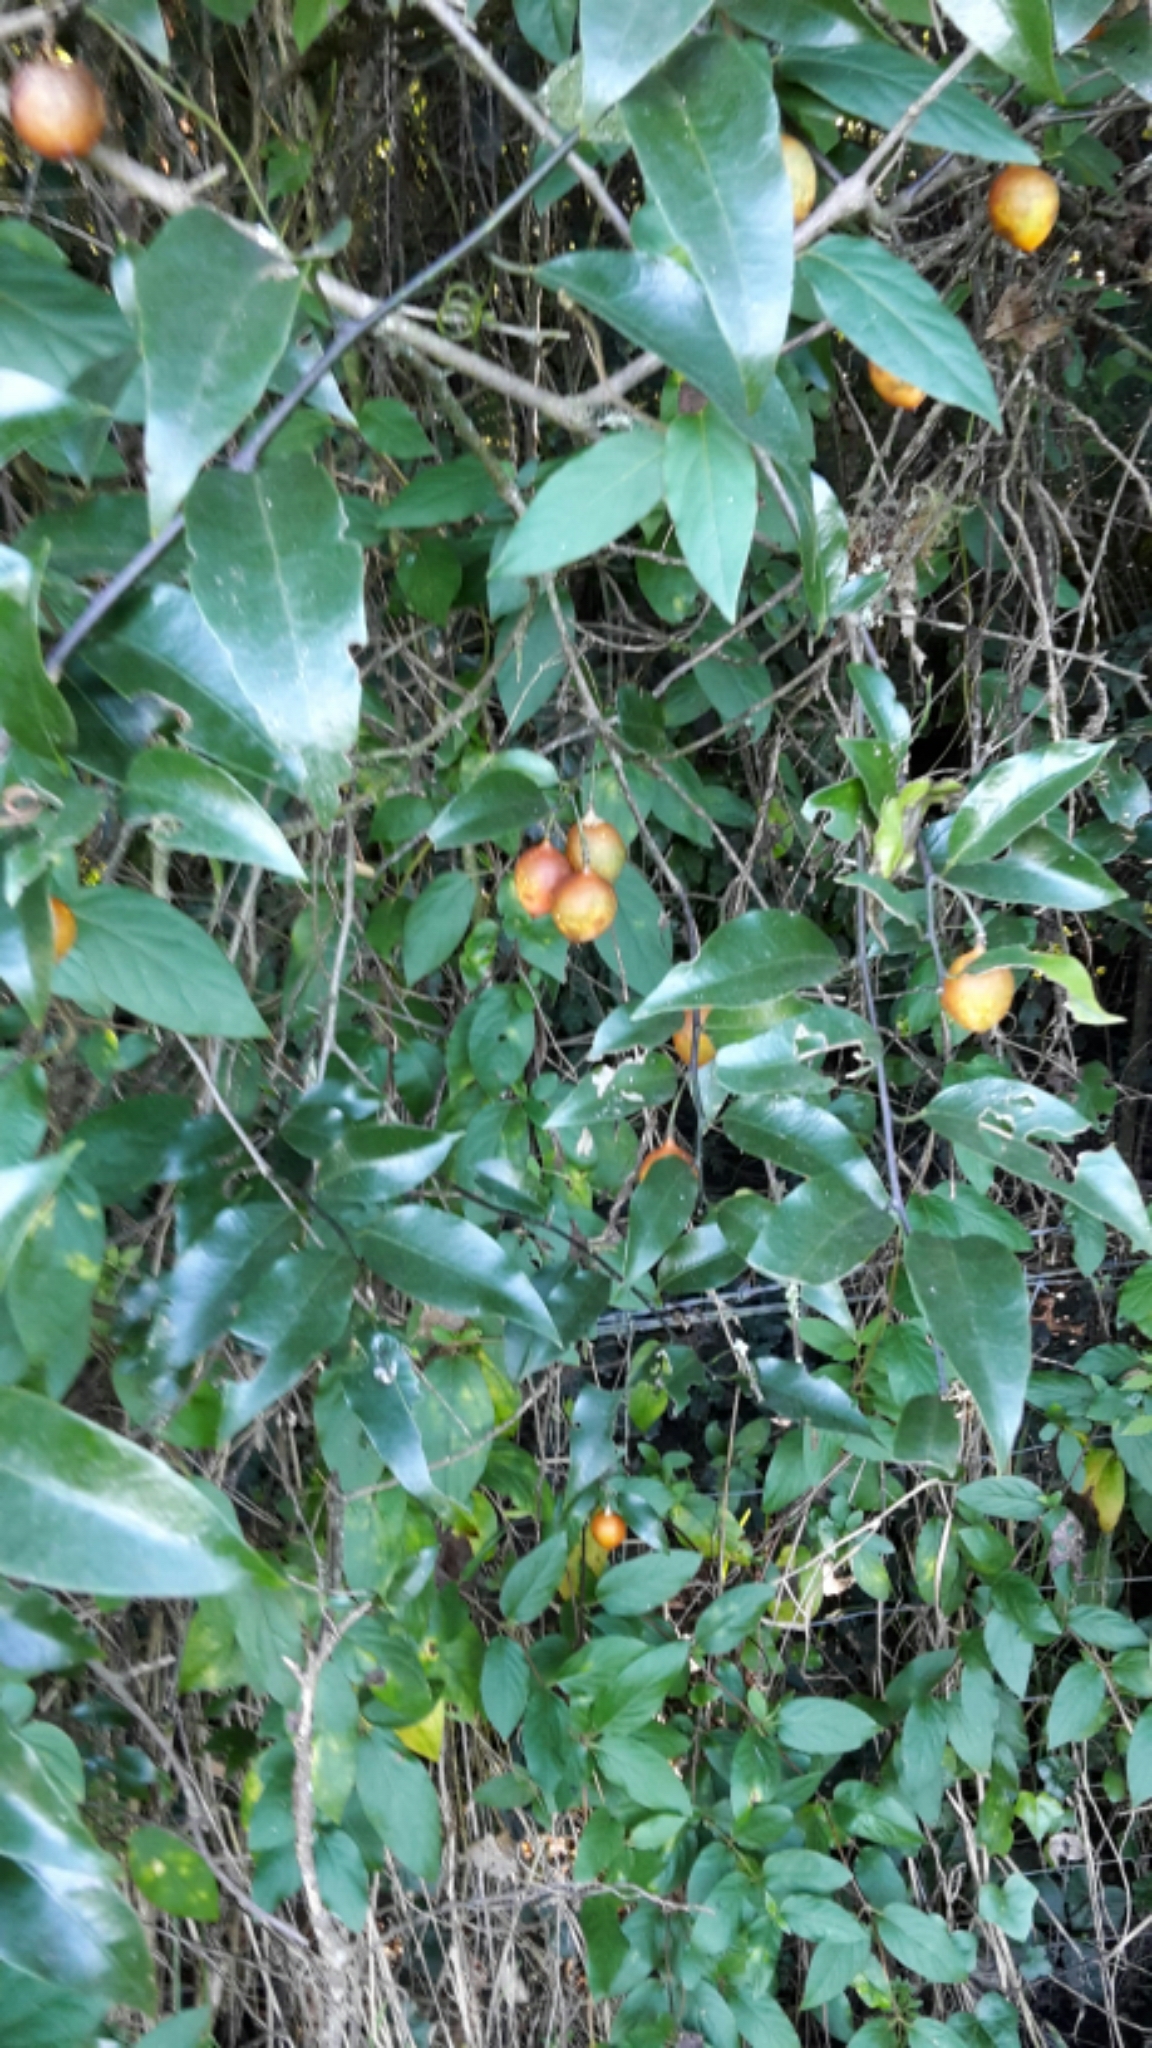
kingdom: Plantae
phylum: Tracheophyta
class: Magnoliopsida
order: Malpighiales
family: Passifloraceae
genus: Passiflora
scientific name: Passiflora tetrandra
